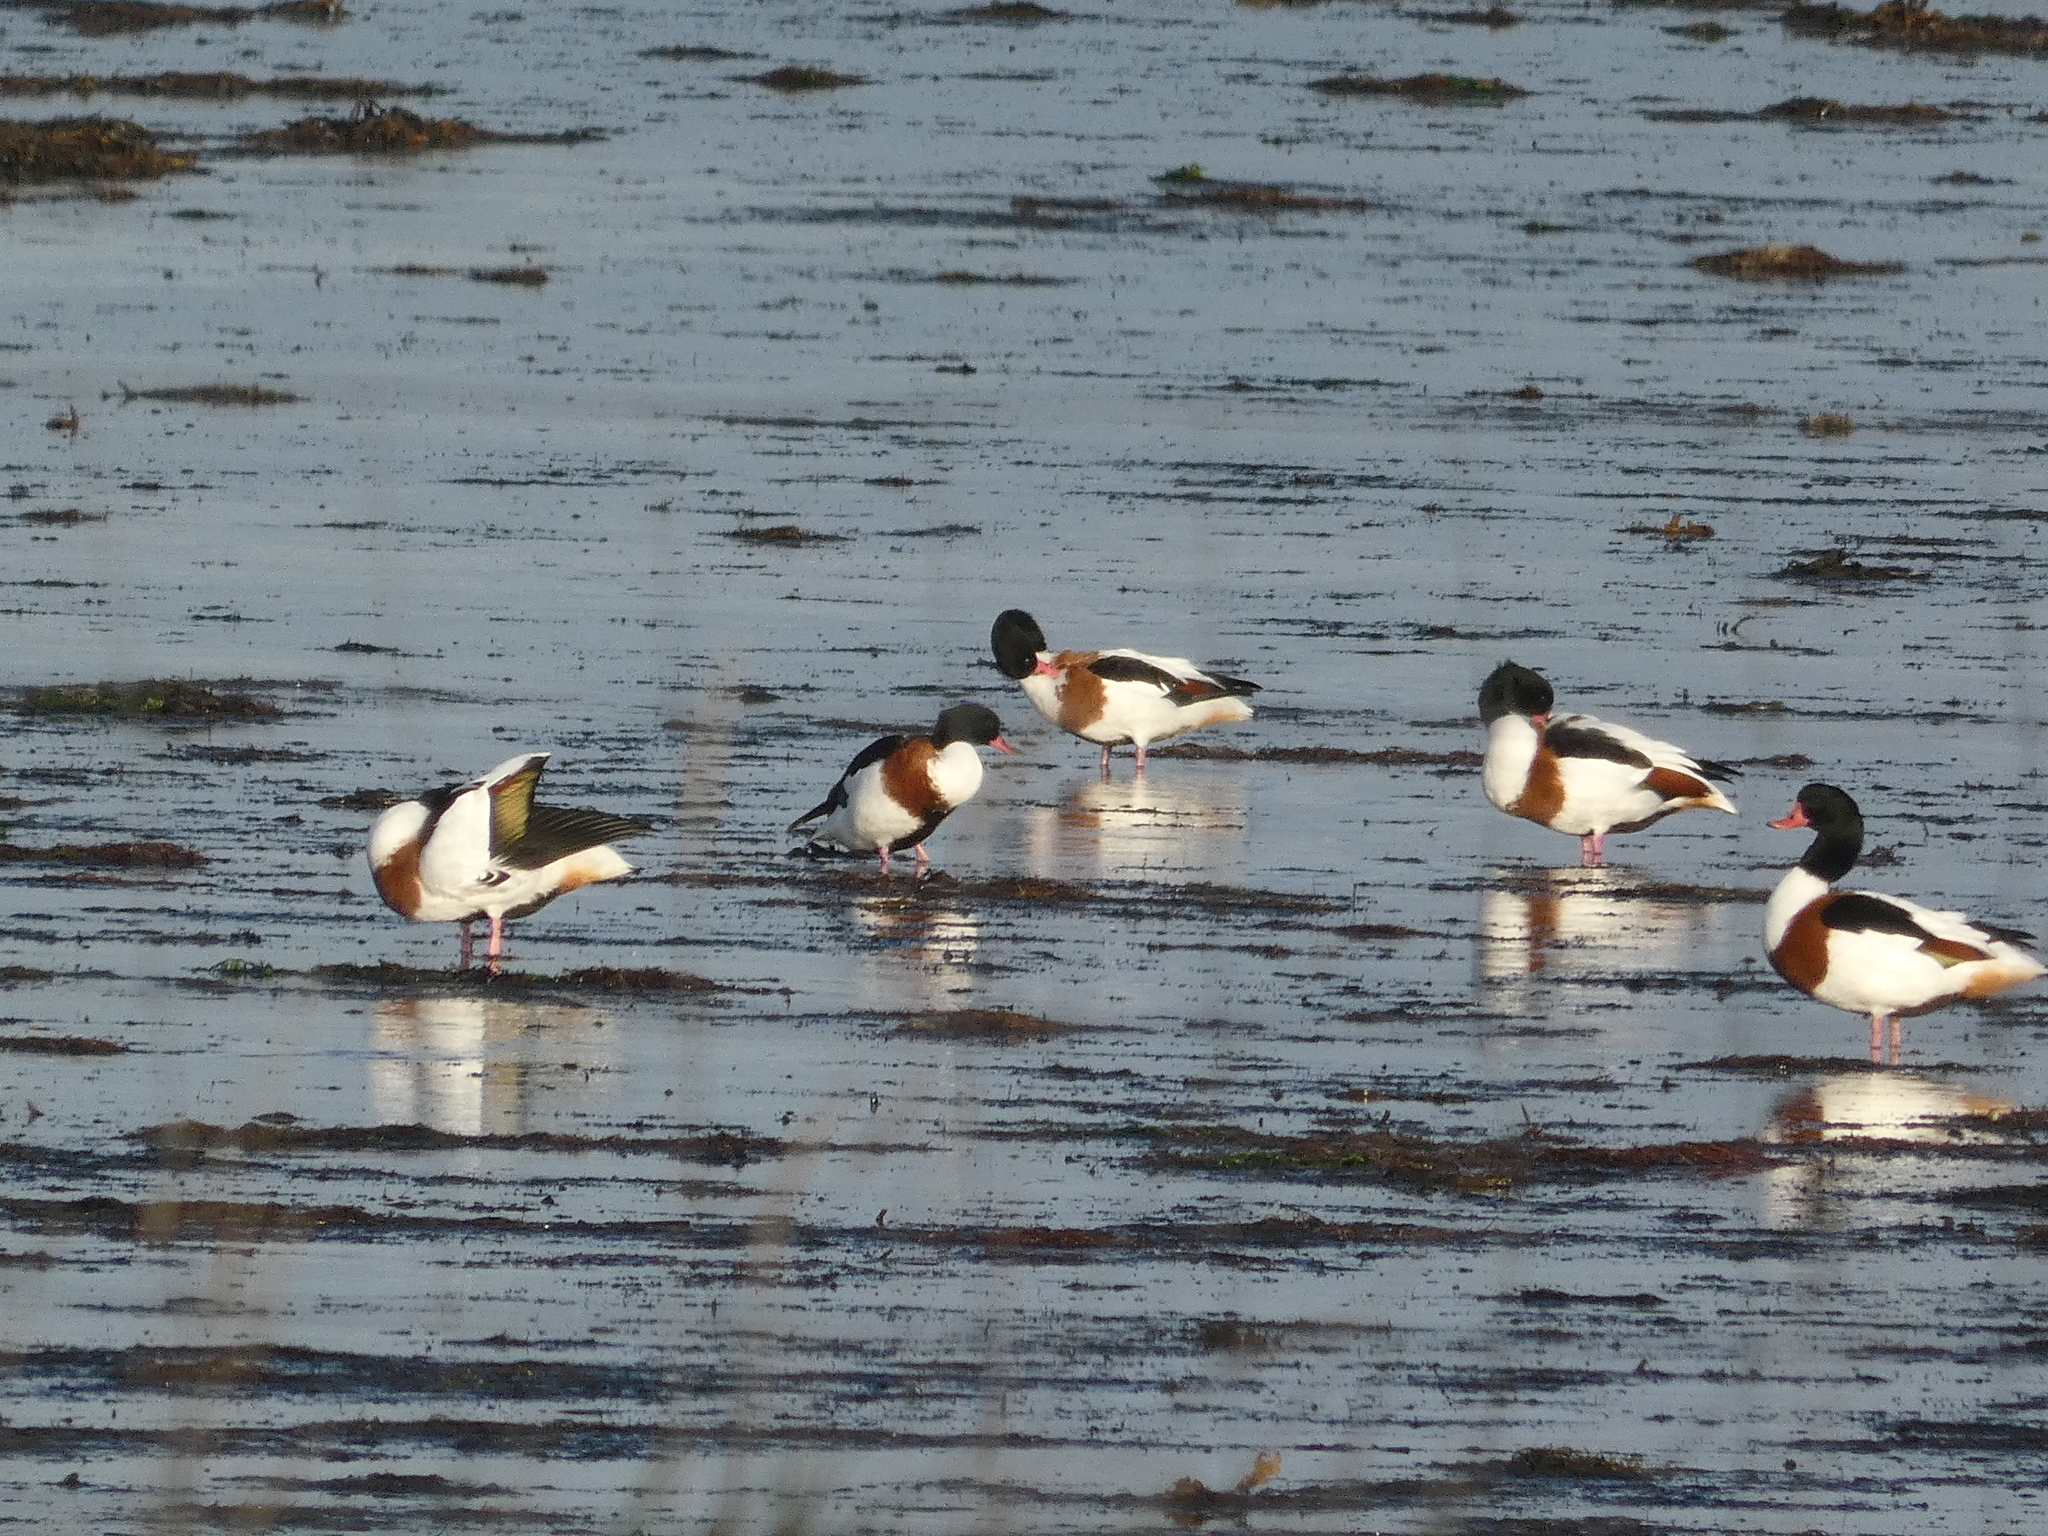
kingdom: Animalia
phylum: Chordata
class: Aves
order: Anseriformes
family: Anatidae
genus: Tadorna
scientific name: Tadorna tadorna
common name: Common shelduck
